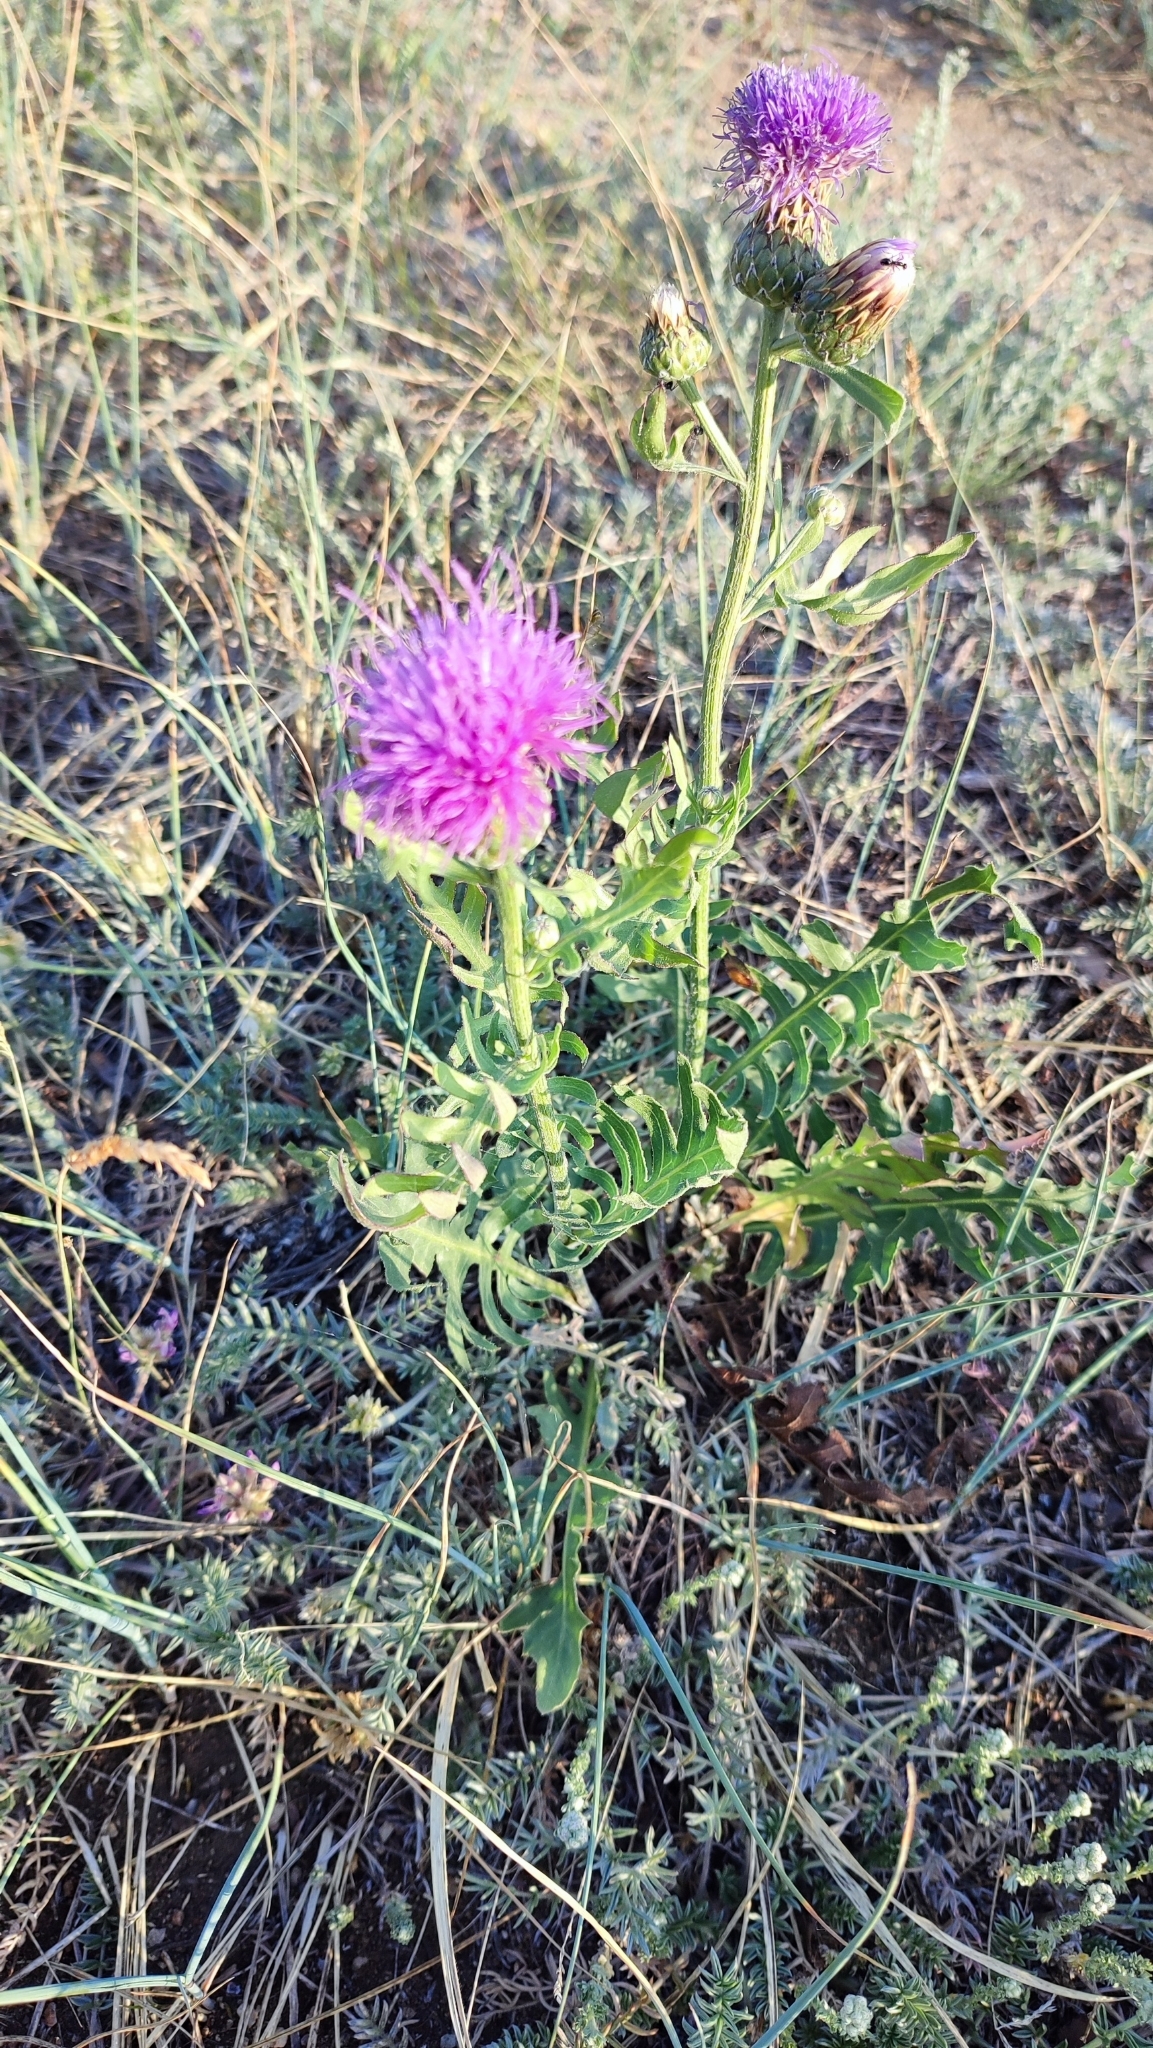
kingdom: Plantae
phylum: Tracheophyta
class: Magnoliopsida
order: Asterales
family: Asteraceae
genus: Leuzea
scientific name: Leuzea uniflora
